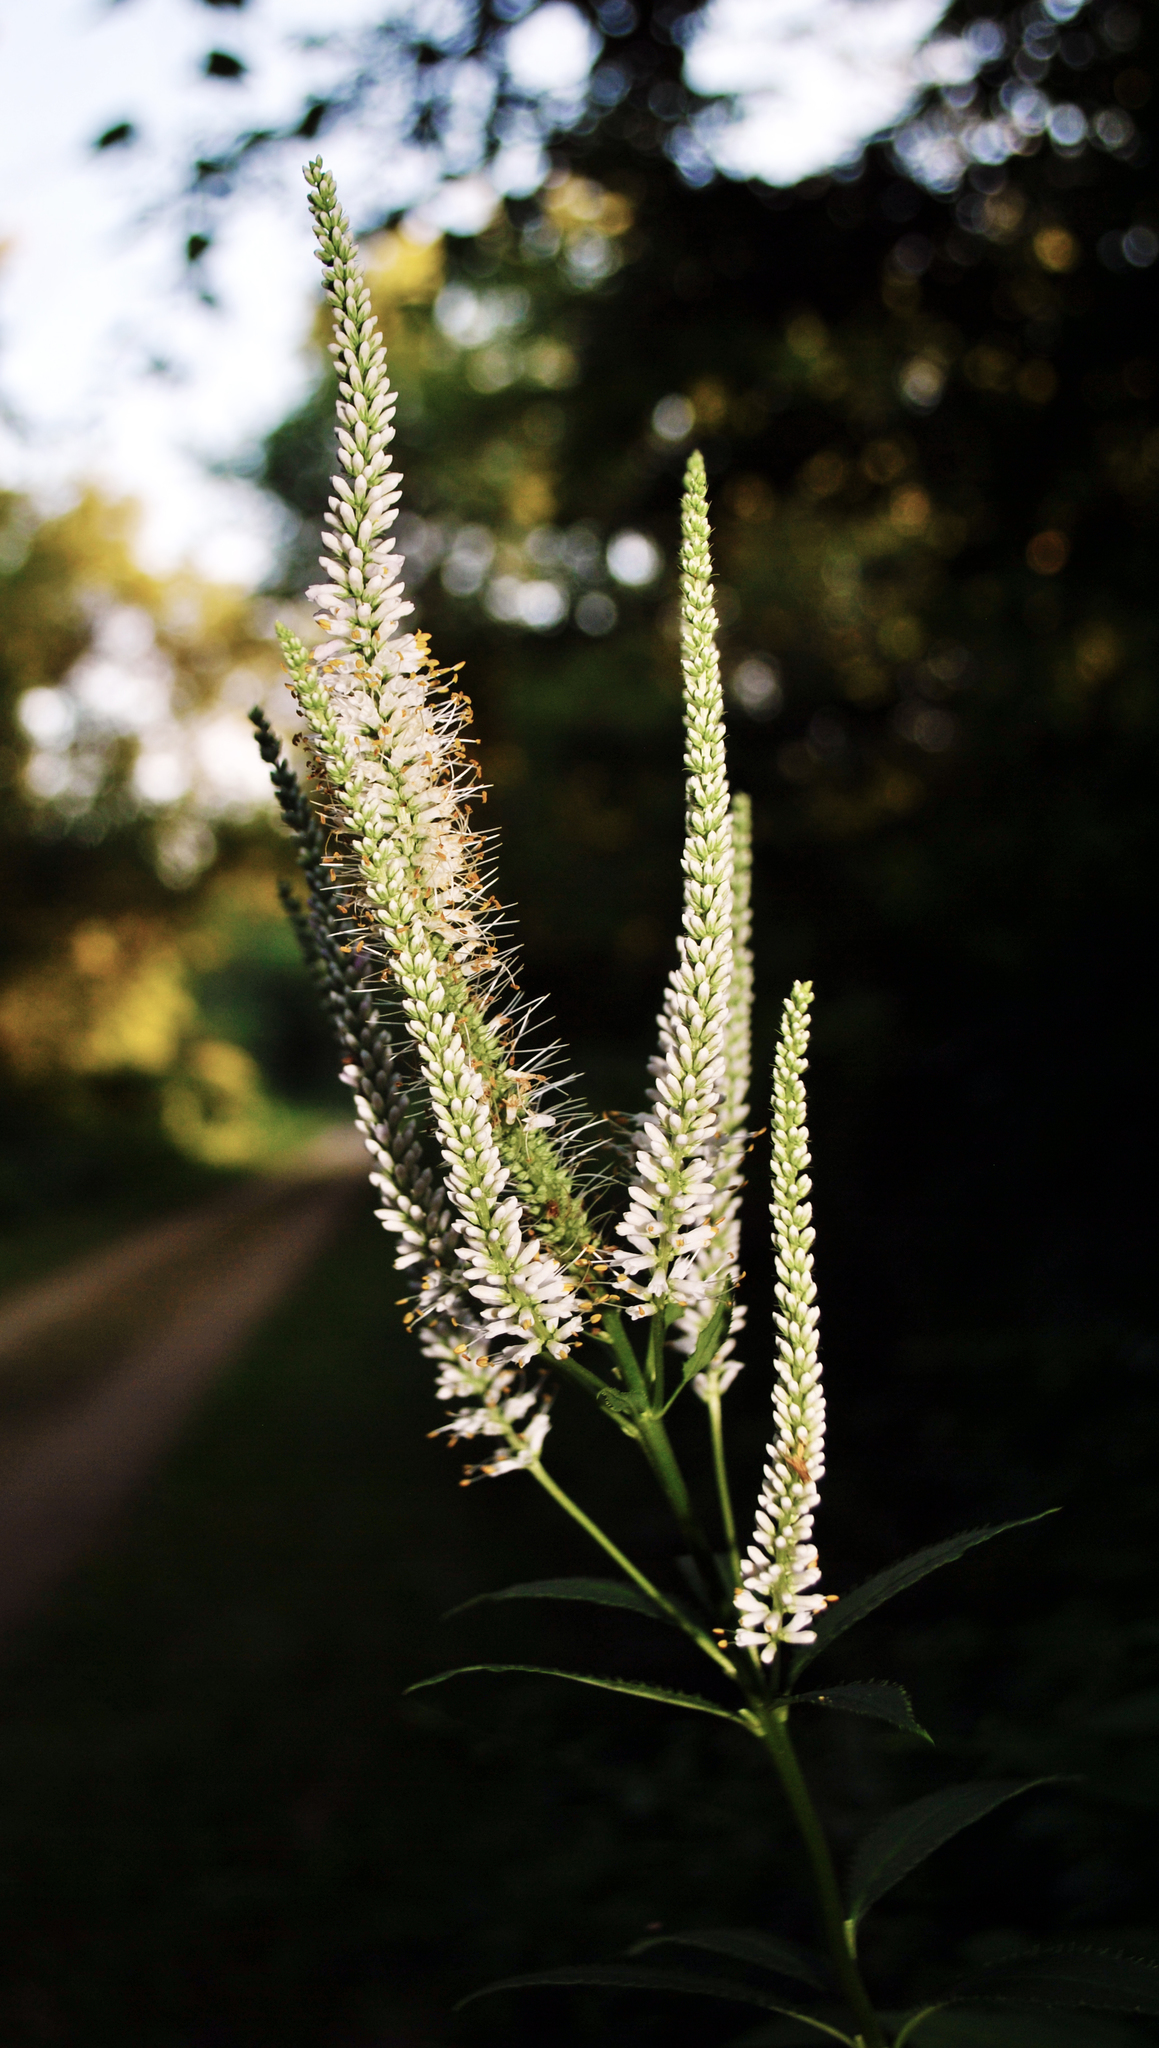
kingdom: Plantae
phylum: Tracheophyta
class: Magnoliopsida
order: Lamiales
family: Plantaginaceae
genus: Veronicastrum
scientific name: Veronicastrum virginicum
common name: Blackroot
